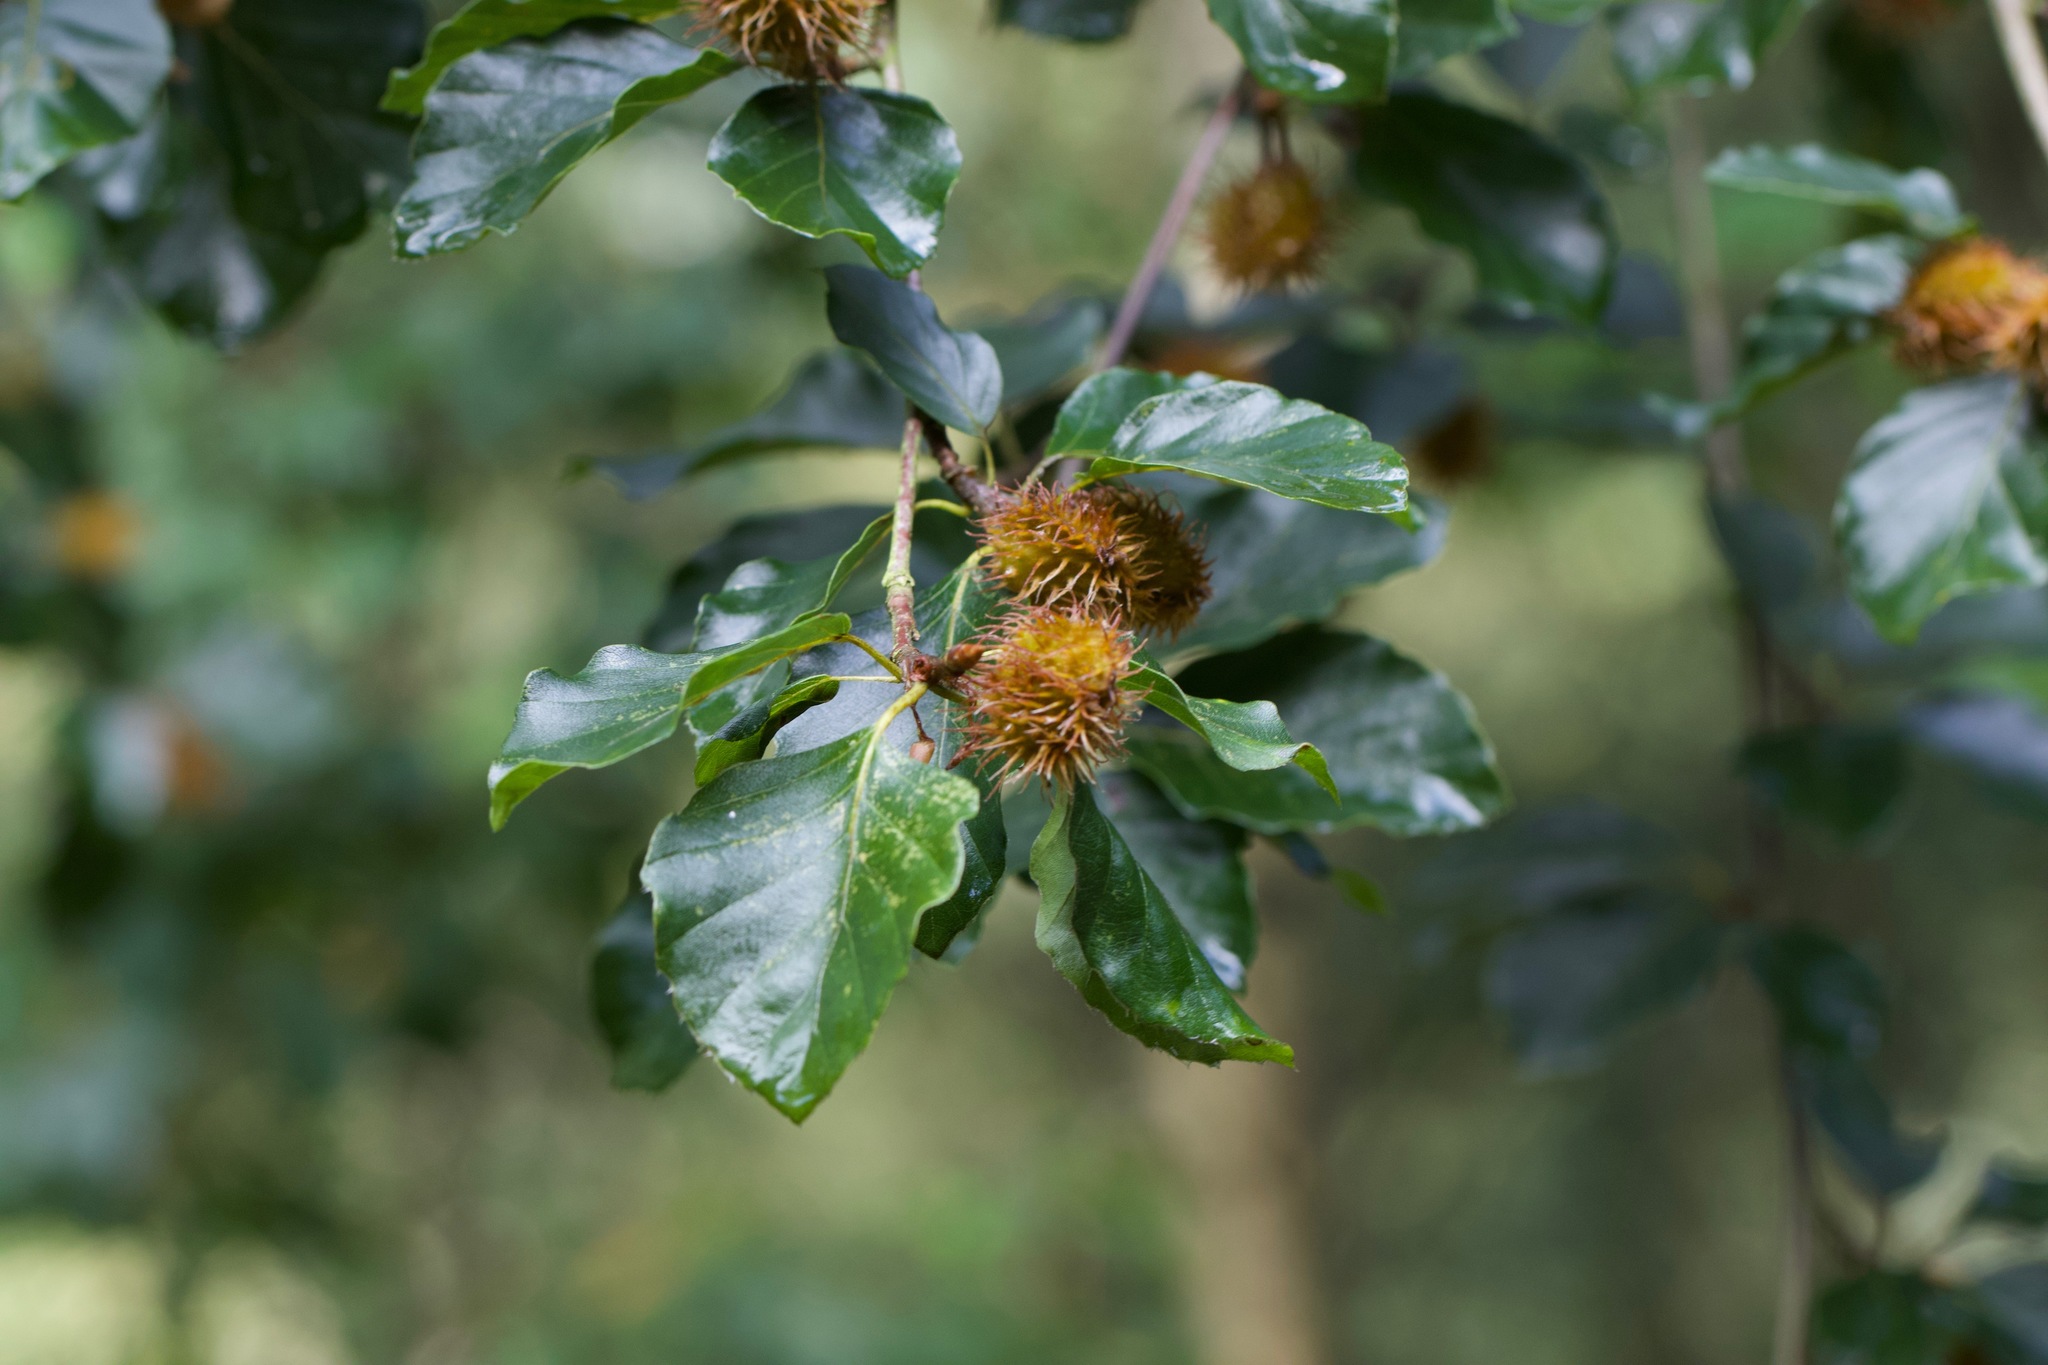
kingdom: Plantae
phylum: Tracheophyta
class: Magnoliopsida
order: Fagales
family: Fagaceae
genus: Fagus
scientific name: Fagus sylvatica
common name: Beech
